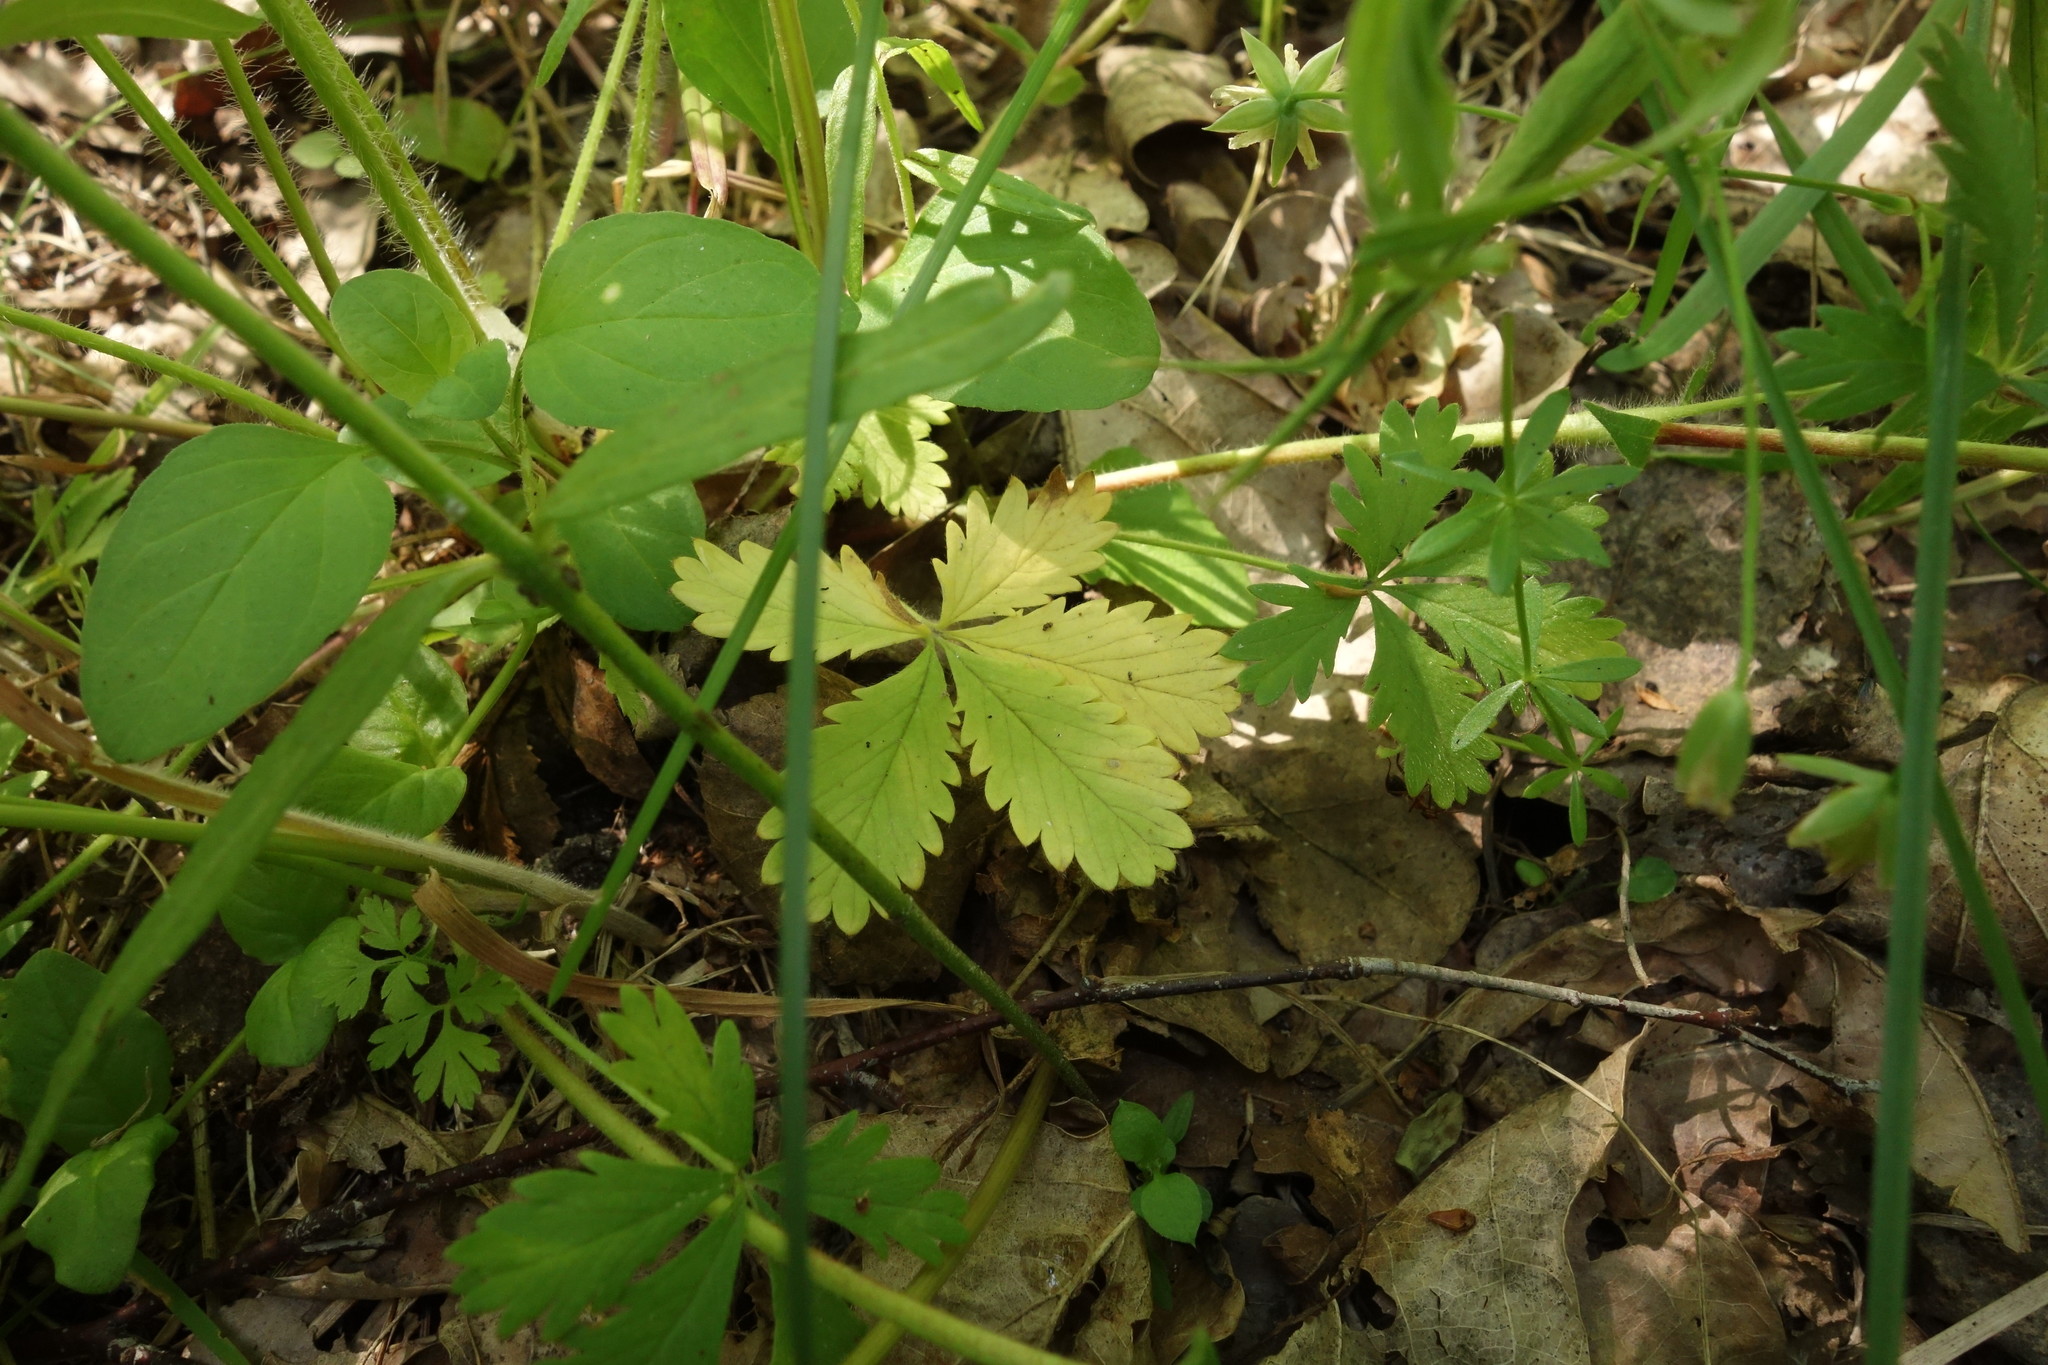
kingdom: Plantae
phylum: Tracheophyta
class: Magnoliopsida
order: Rosales
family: Rosaceae
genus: Potentilla
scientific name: Potentilla thuringiaca
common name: European cinquefoil
